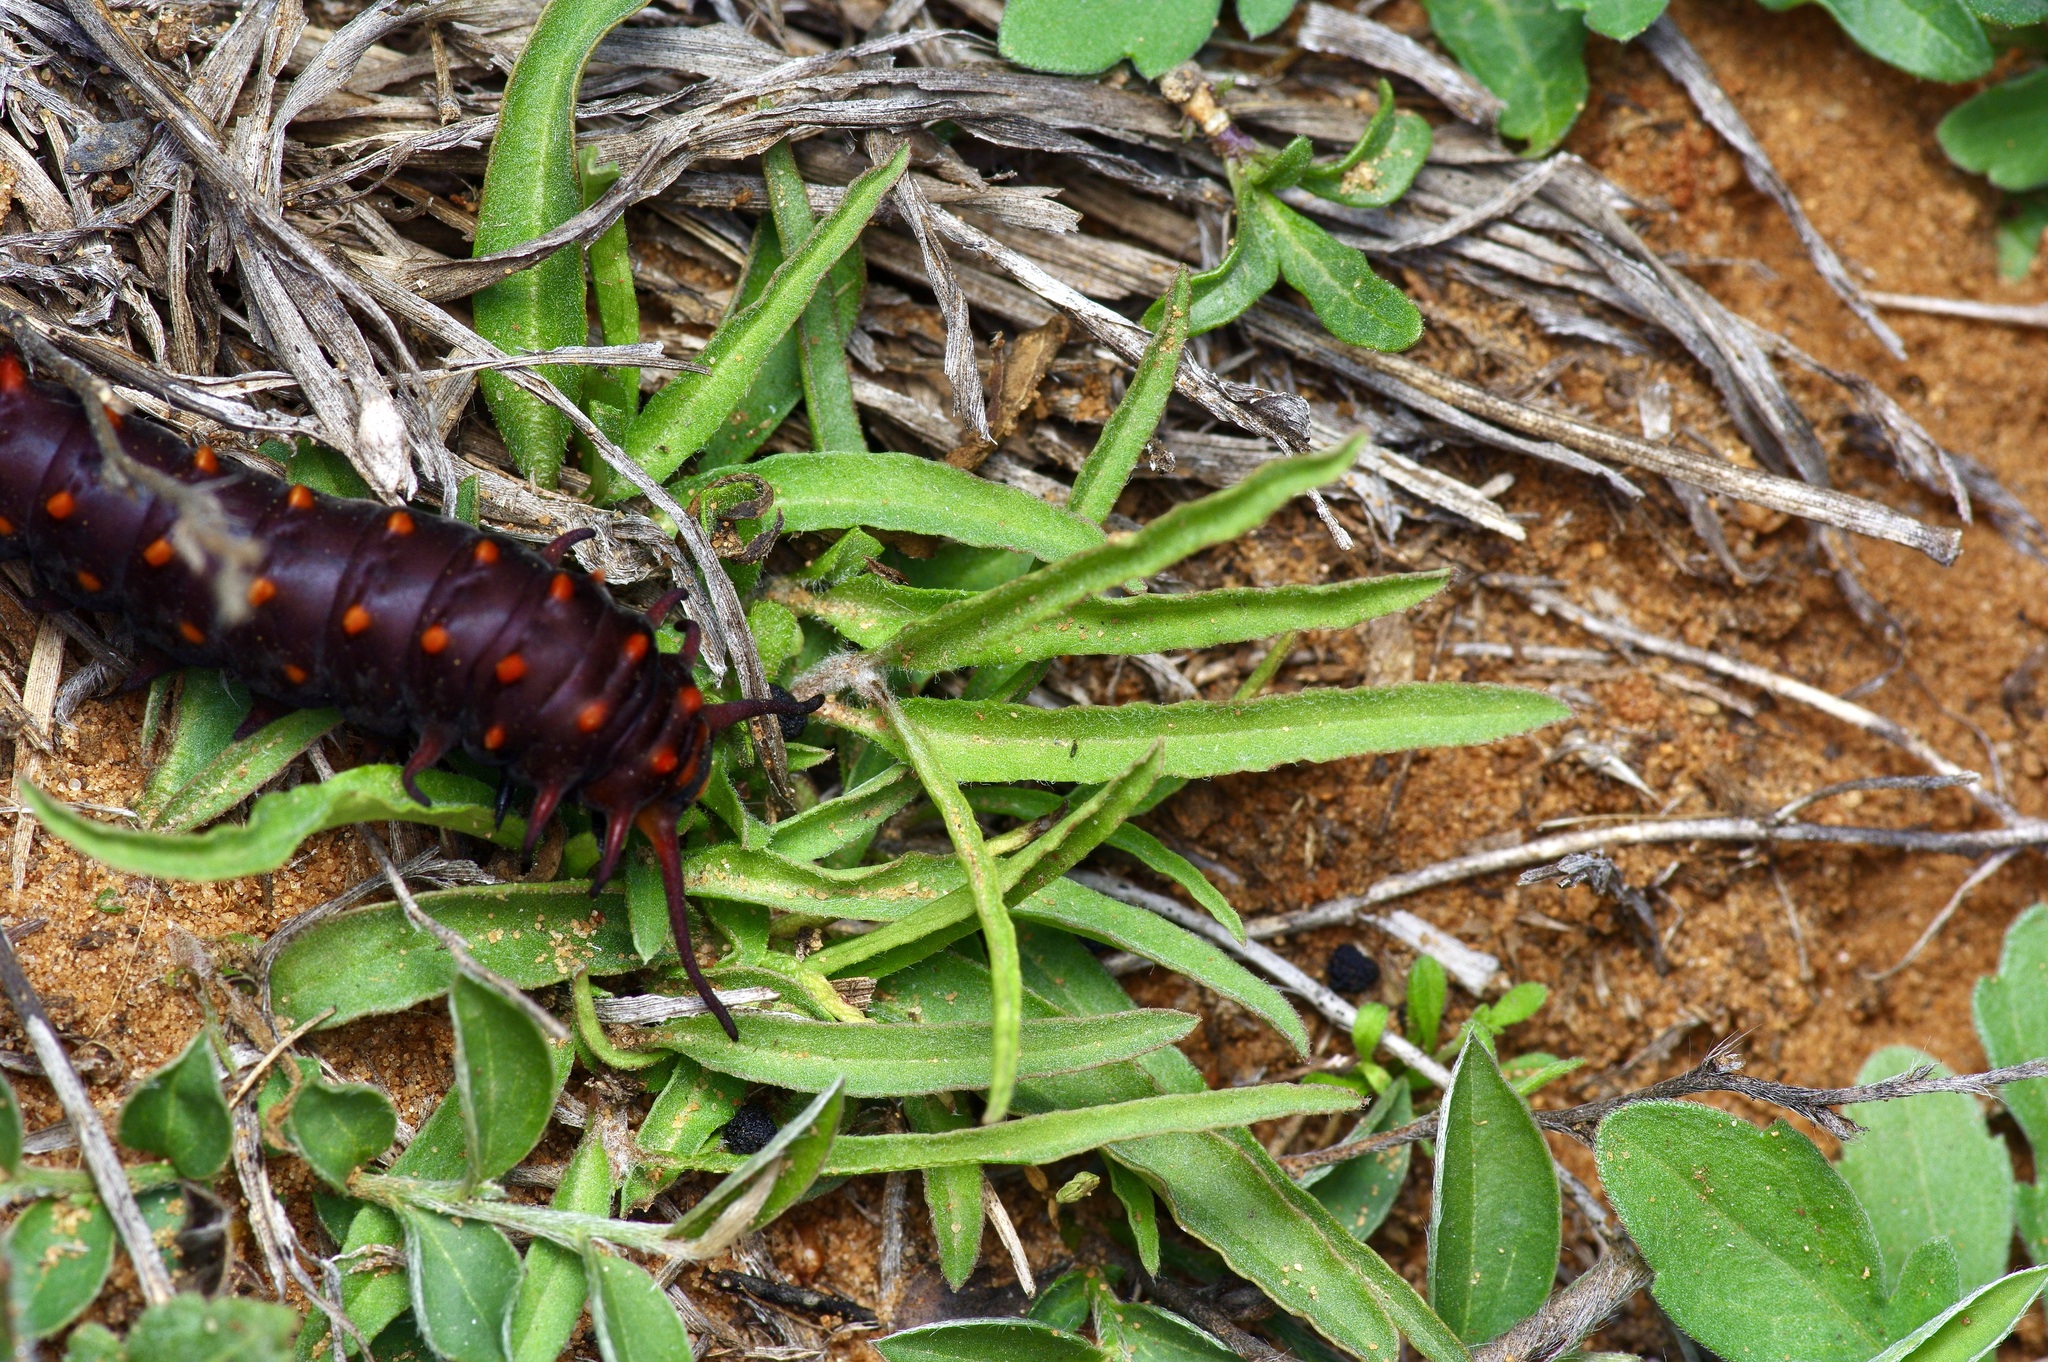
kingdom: Plantae
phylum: Tracheophyta
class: Magnoliopsida
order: Piperales
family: Aristolochiaceae
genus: Aristolochia
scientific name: Aristolochia erecta
